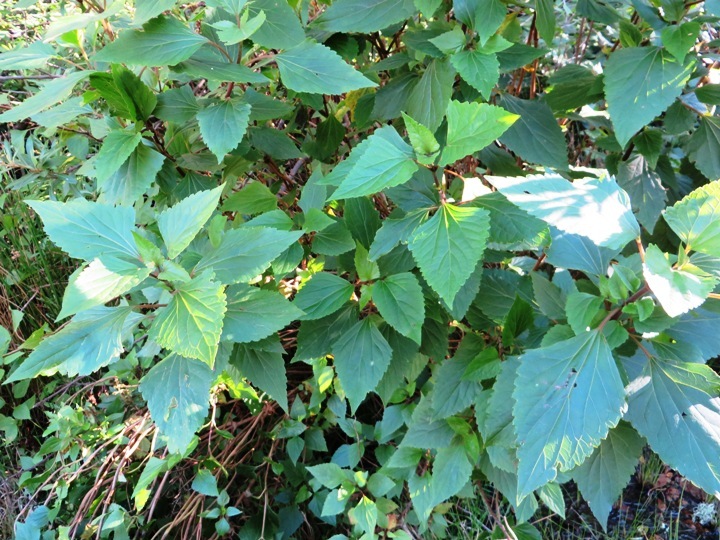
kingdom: Plantae
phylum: Tracheophyta
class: Magnoliopsida
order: Asterales
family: Asteraceae
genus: Ageratina
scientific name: Ageratina adenophora
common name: Sticky snakeroot
